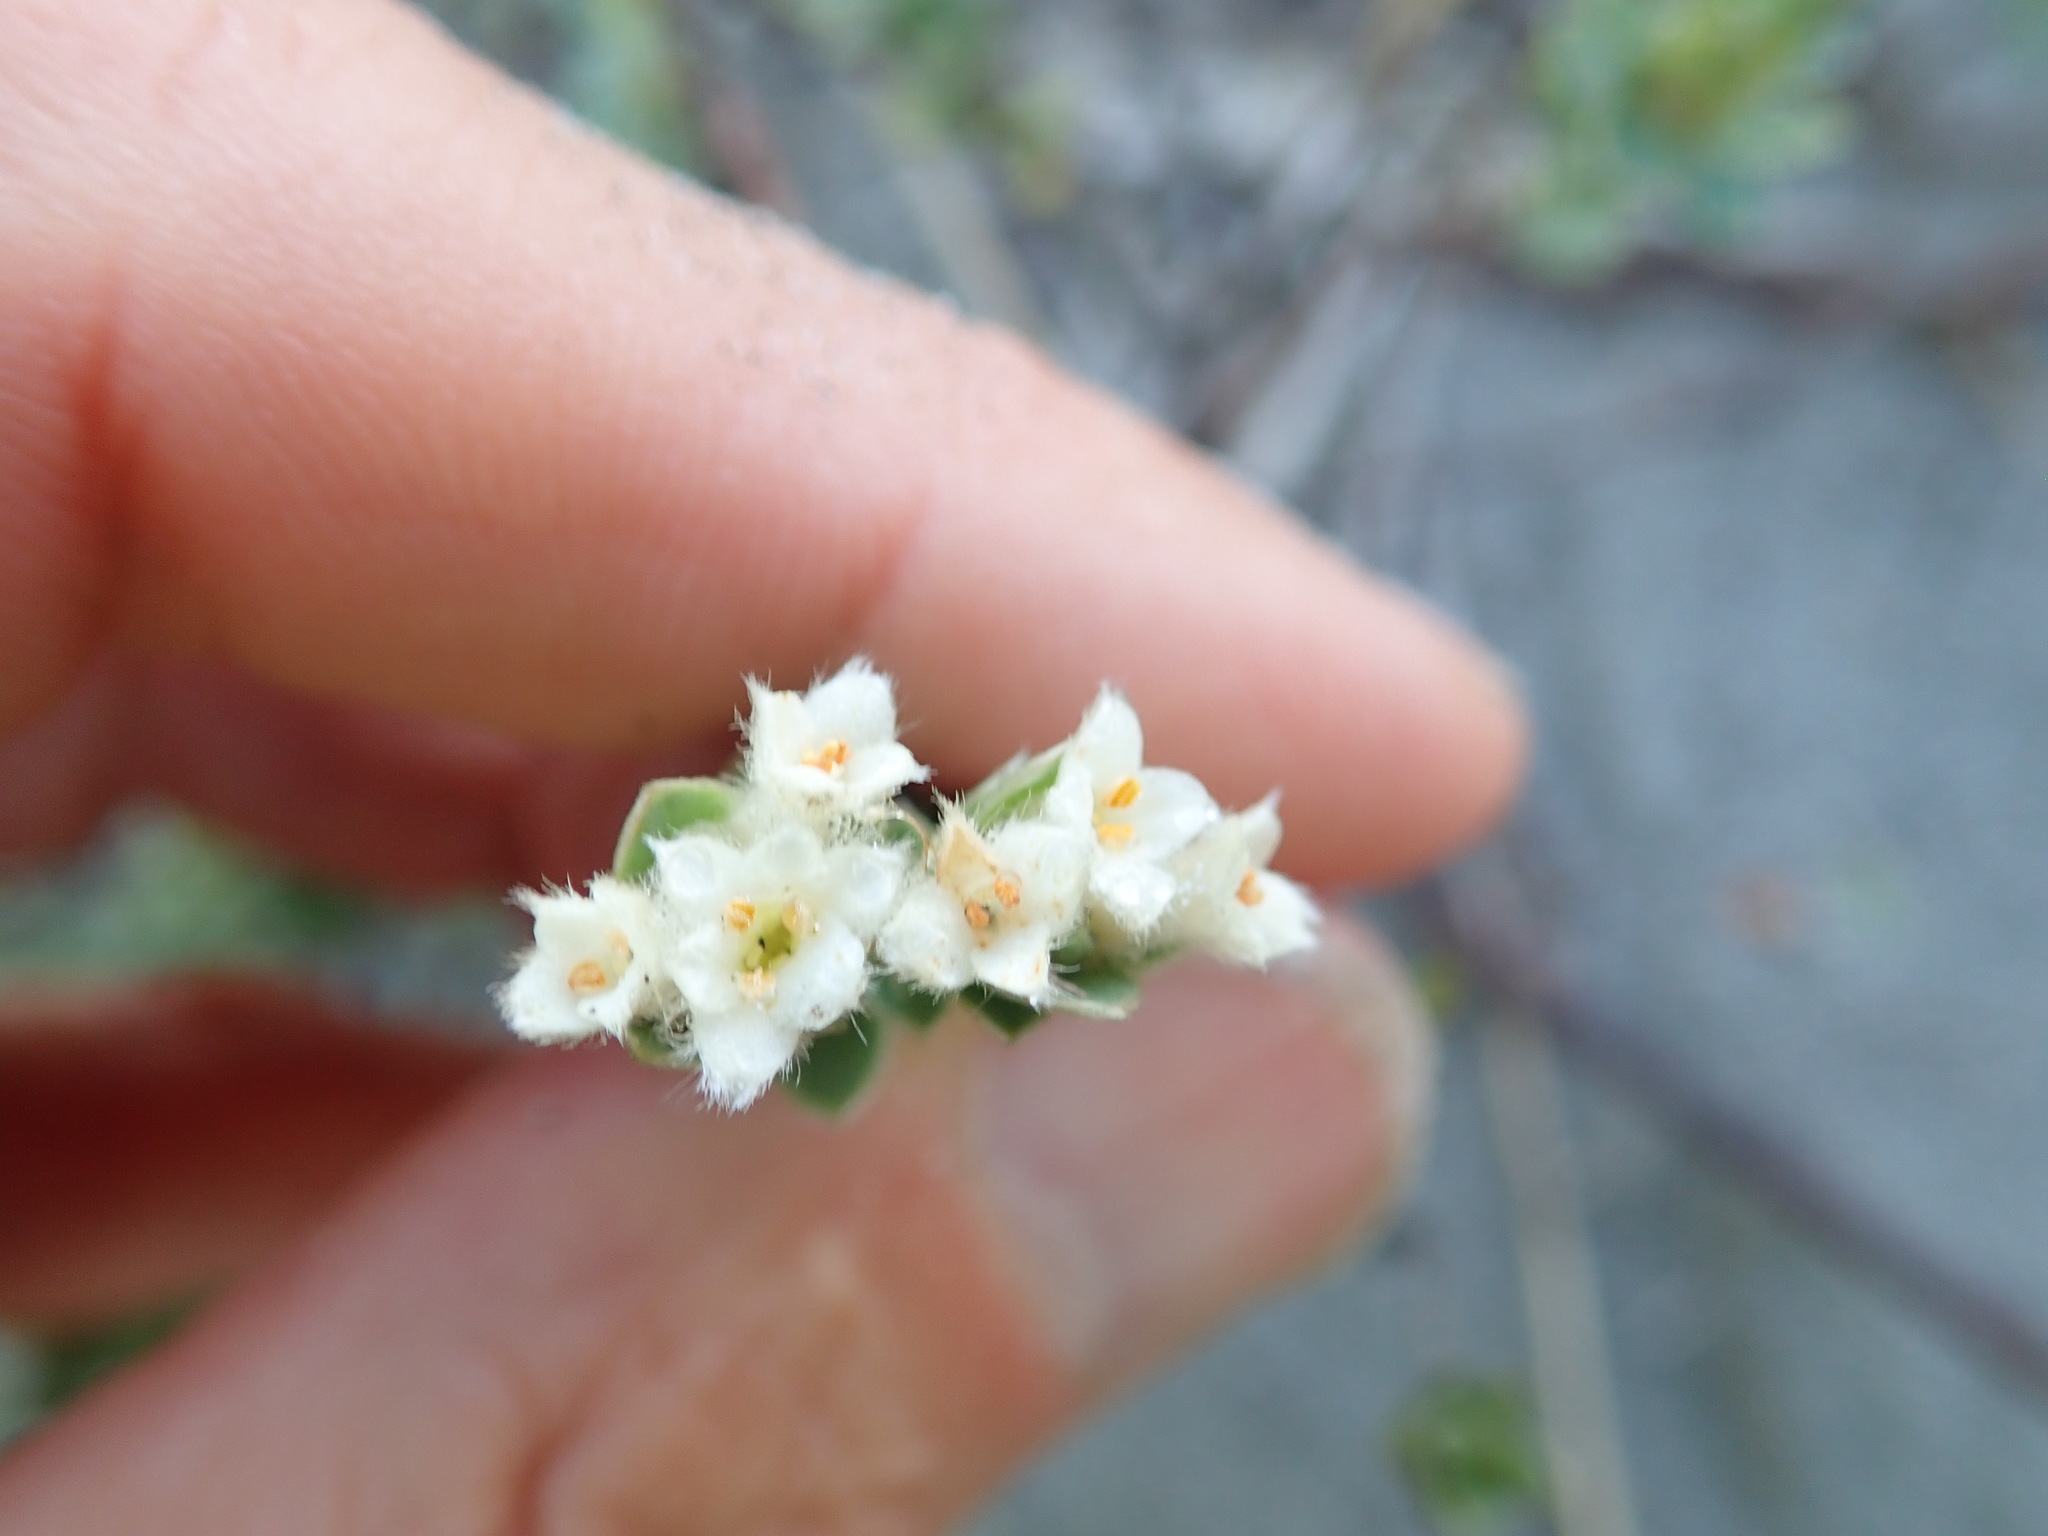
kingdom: Plantae
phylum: Tracheophyta
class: Magnoliopsida
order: Malvales
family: Thymelaeaceae
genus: Pimelea
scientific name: Pimelea villosa
